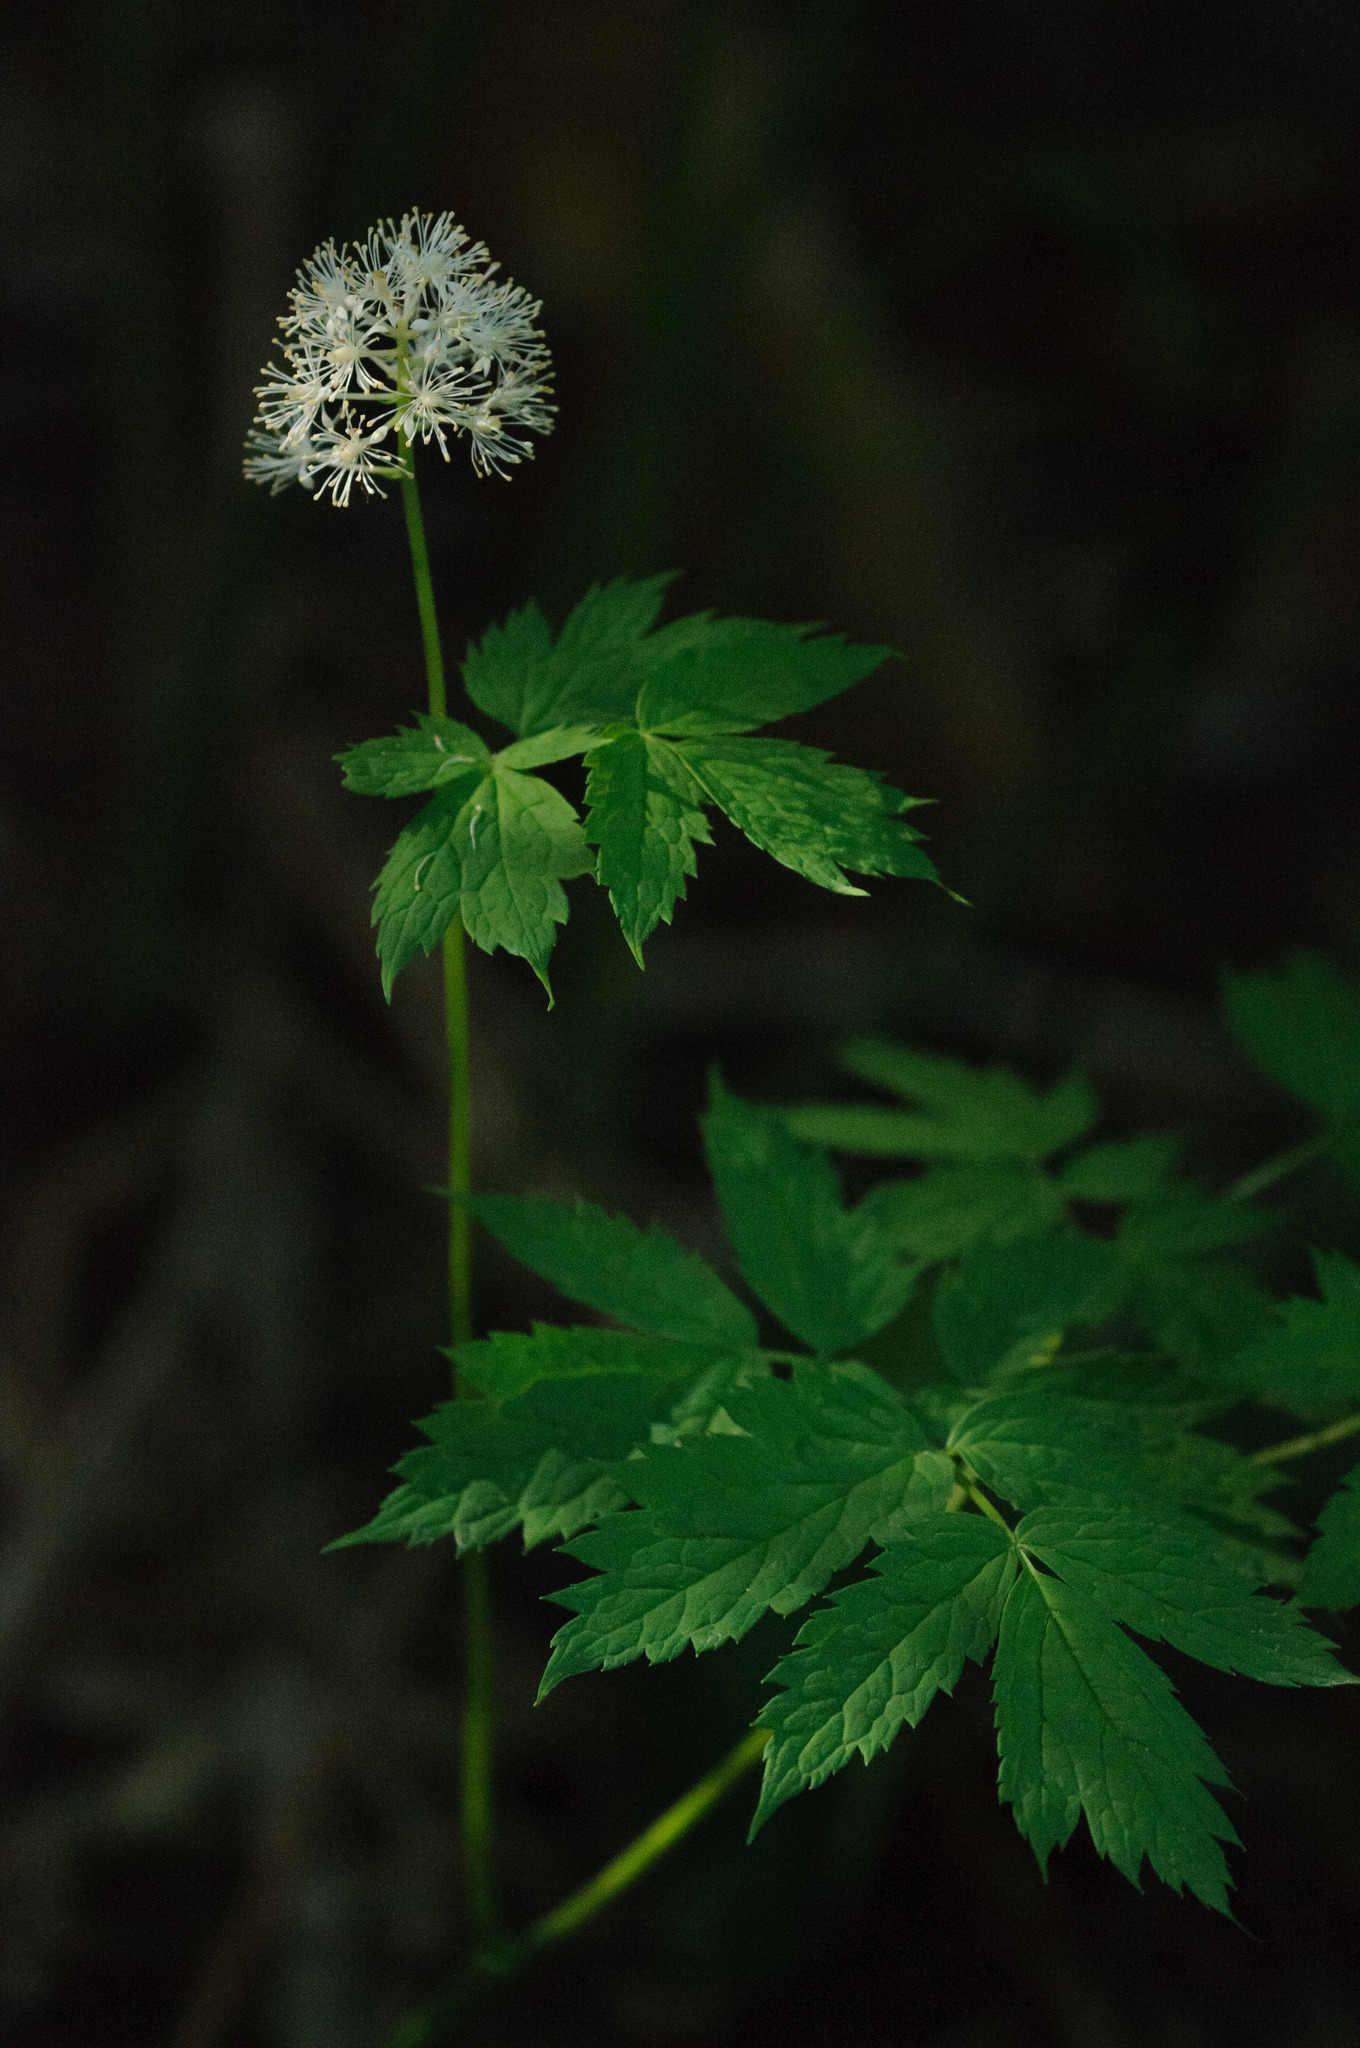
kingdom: Plantae
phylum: Tracheophyta
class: Magnoliopsida
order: Ranunculales
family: Ranunculaceae
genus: Actaea
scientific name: Actaea rubra
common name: Red baneberry
